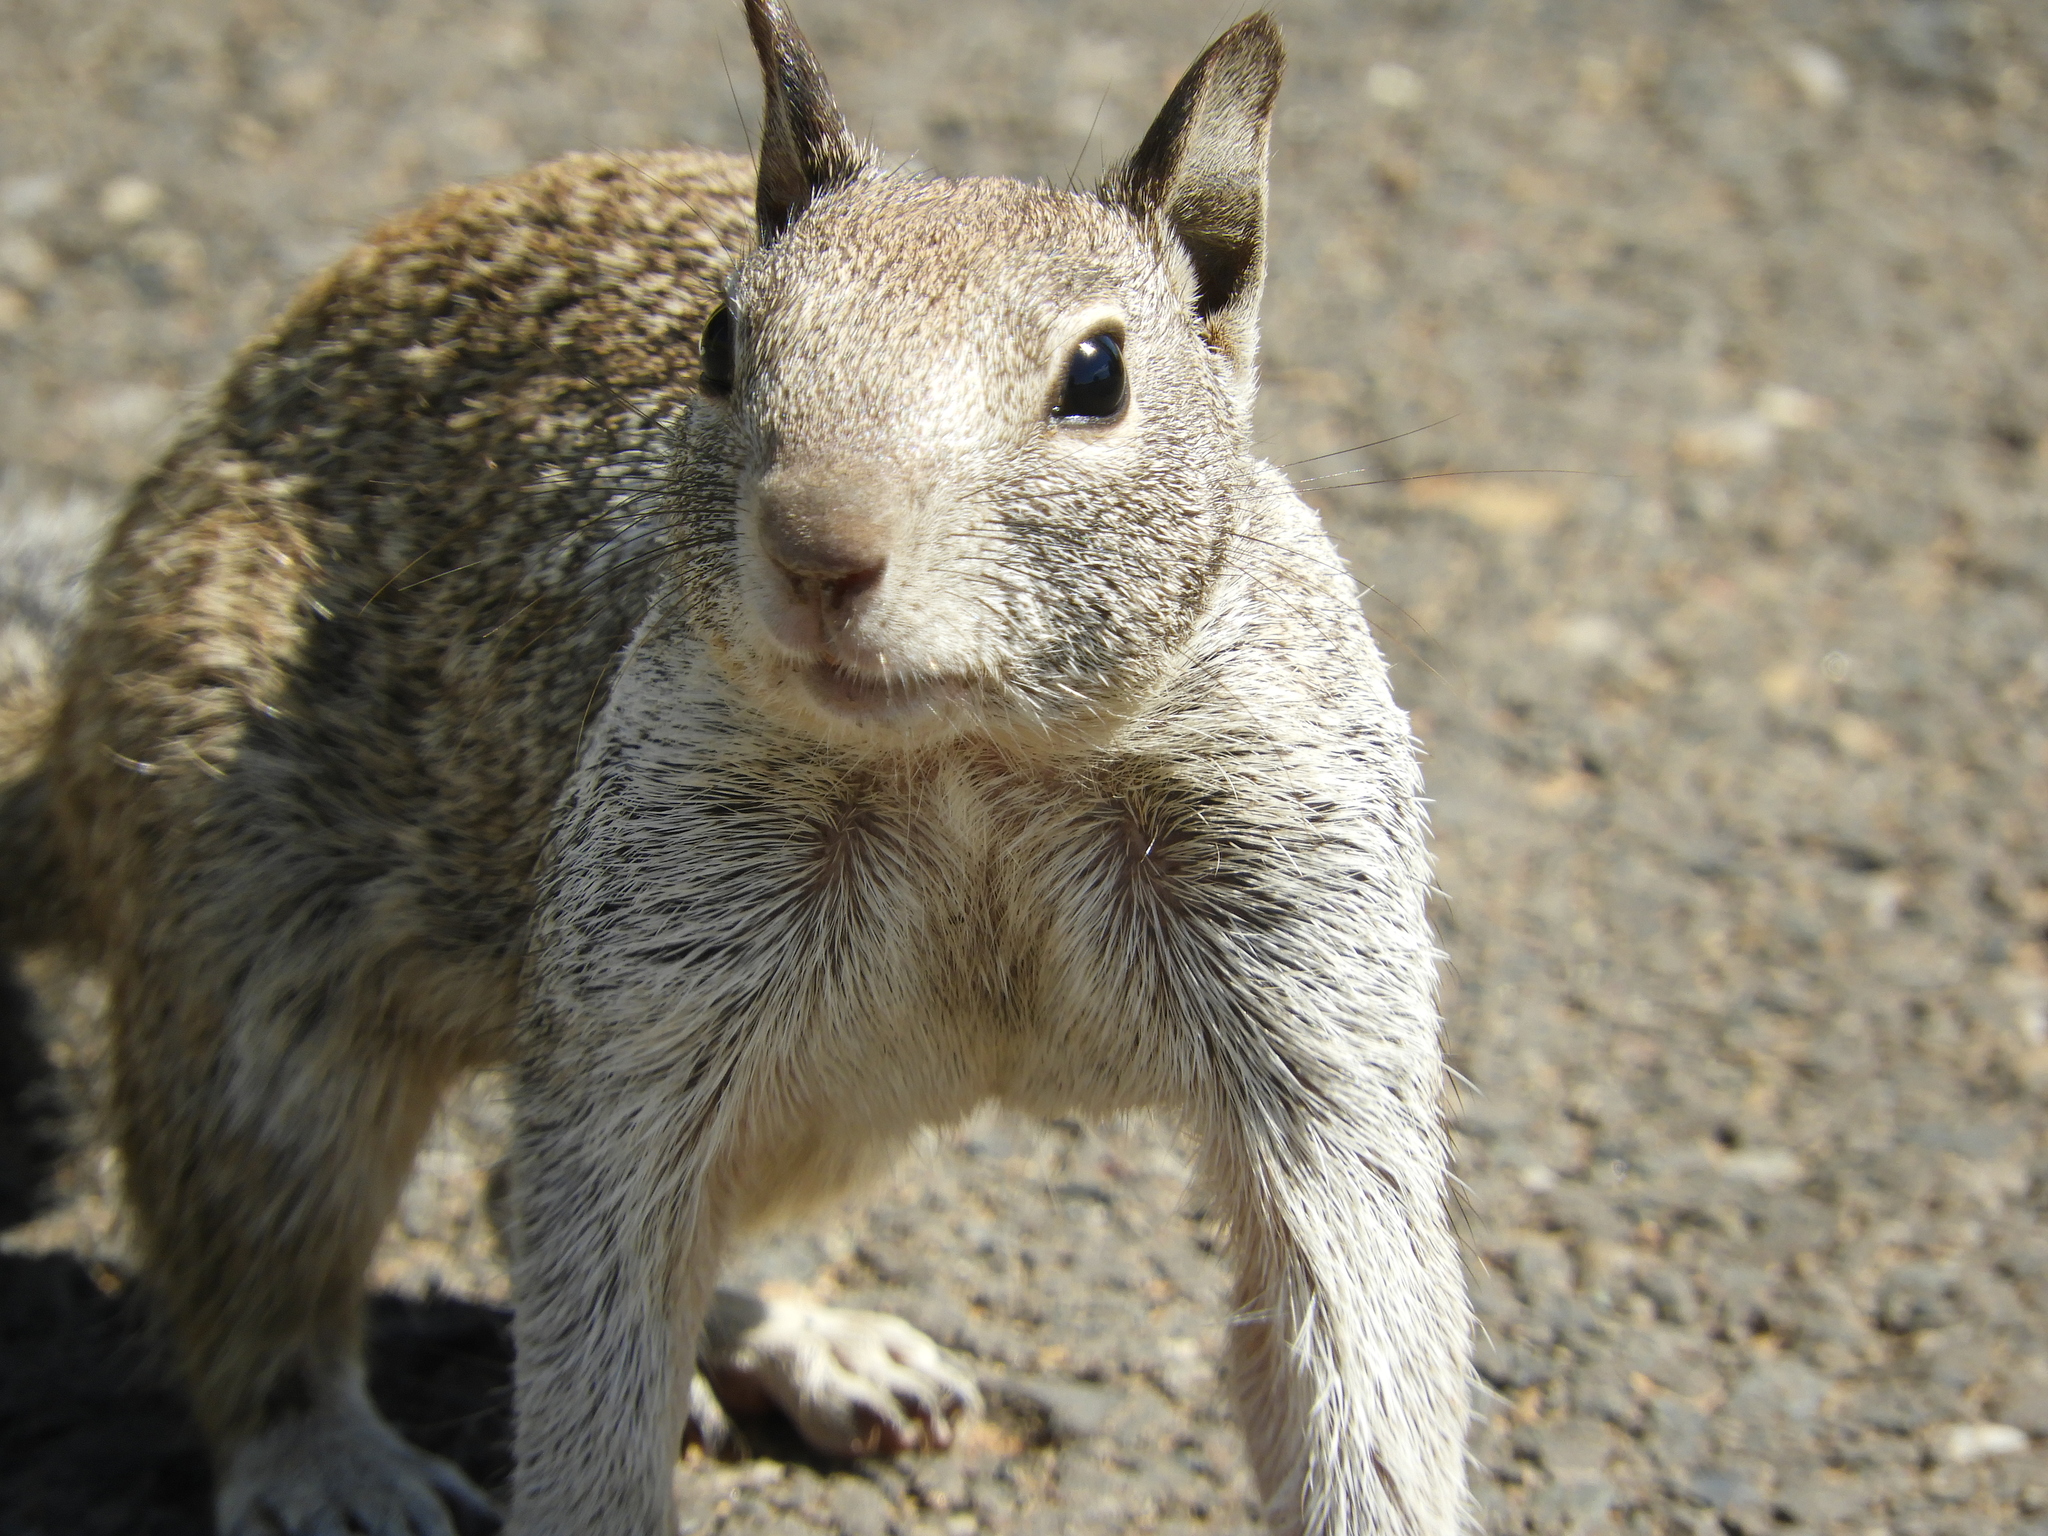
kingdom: Animalia
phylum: Chordata
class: Mammalia
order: Rodentia
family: Sciuridae
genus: Otospermophilus
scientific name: Otospermophilus beecheyi
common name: California ground squirrel
